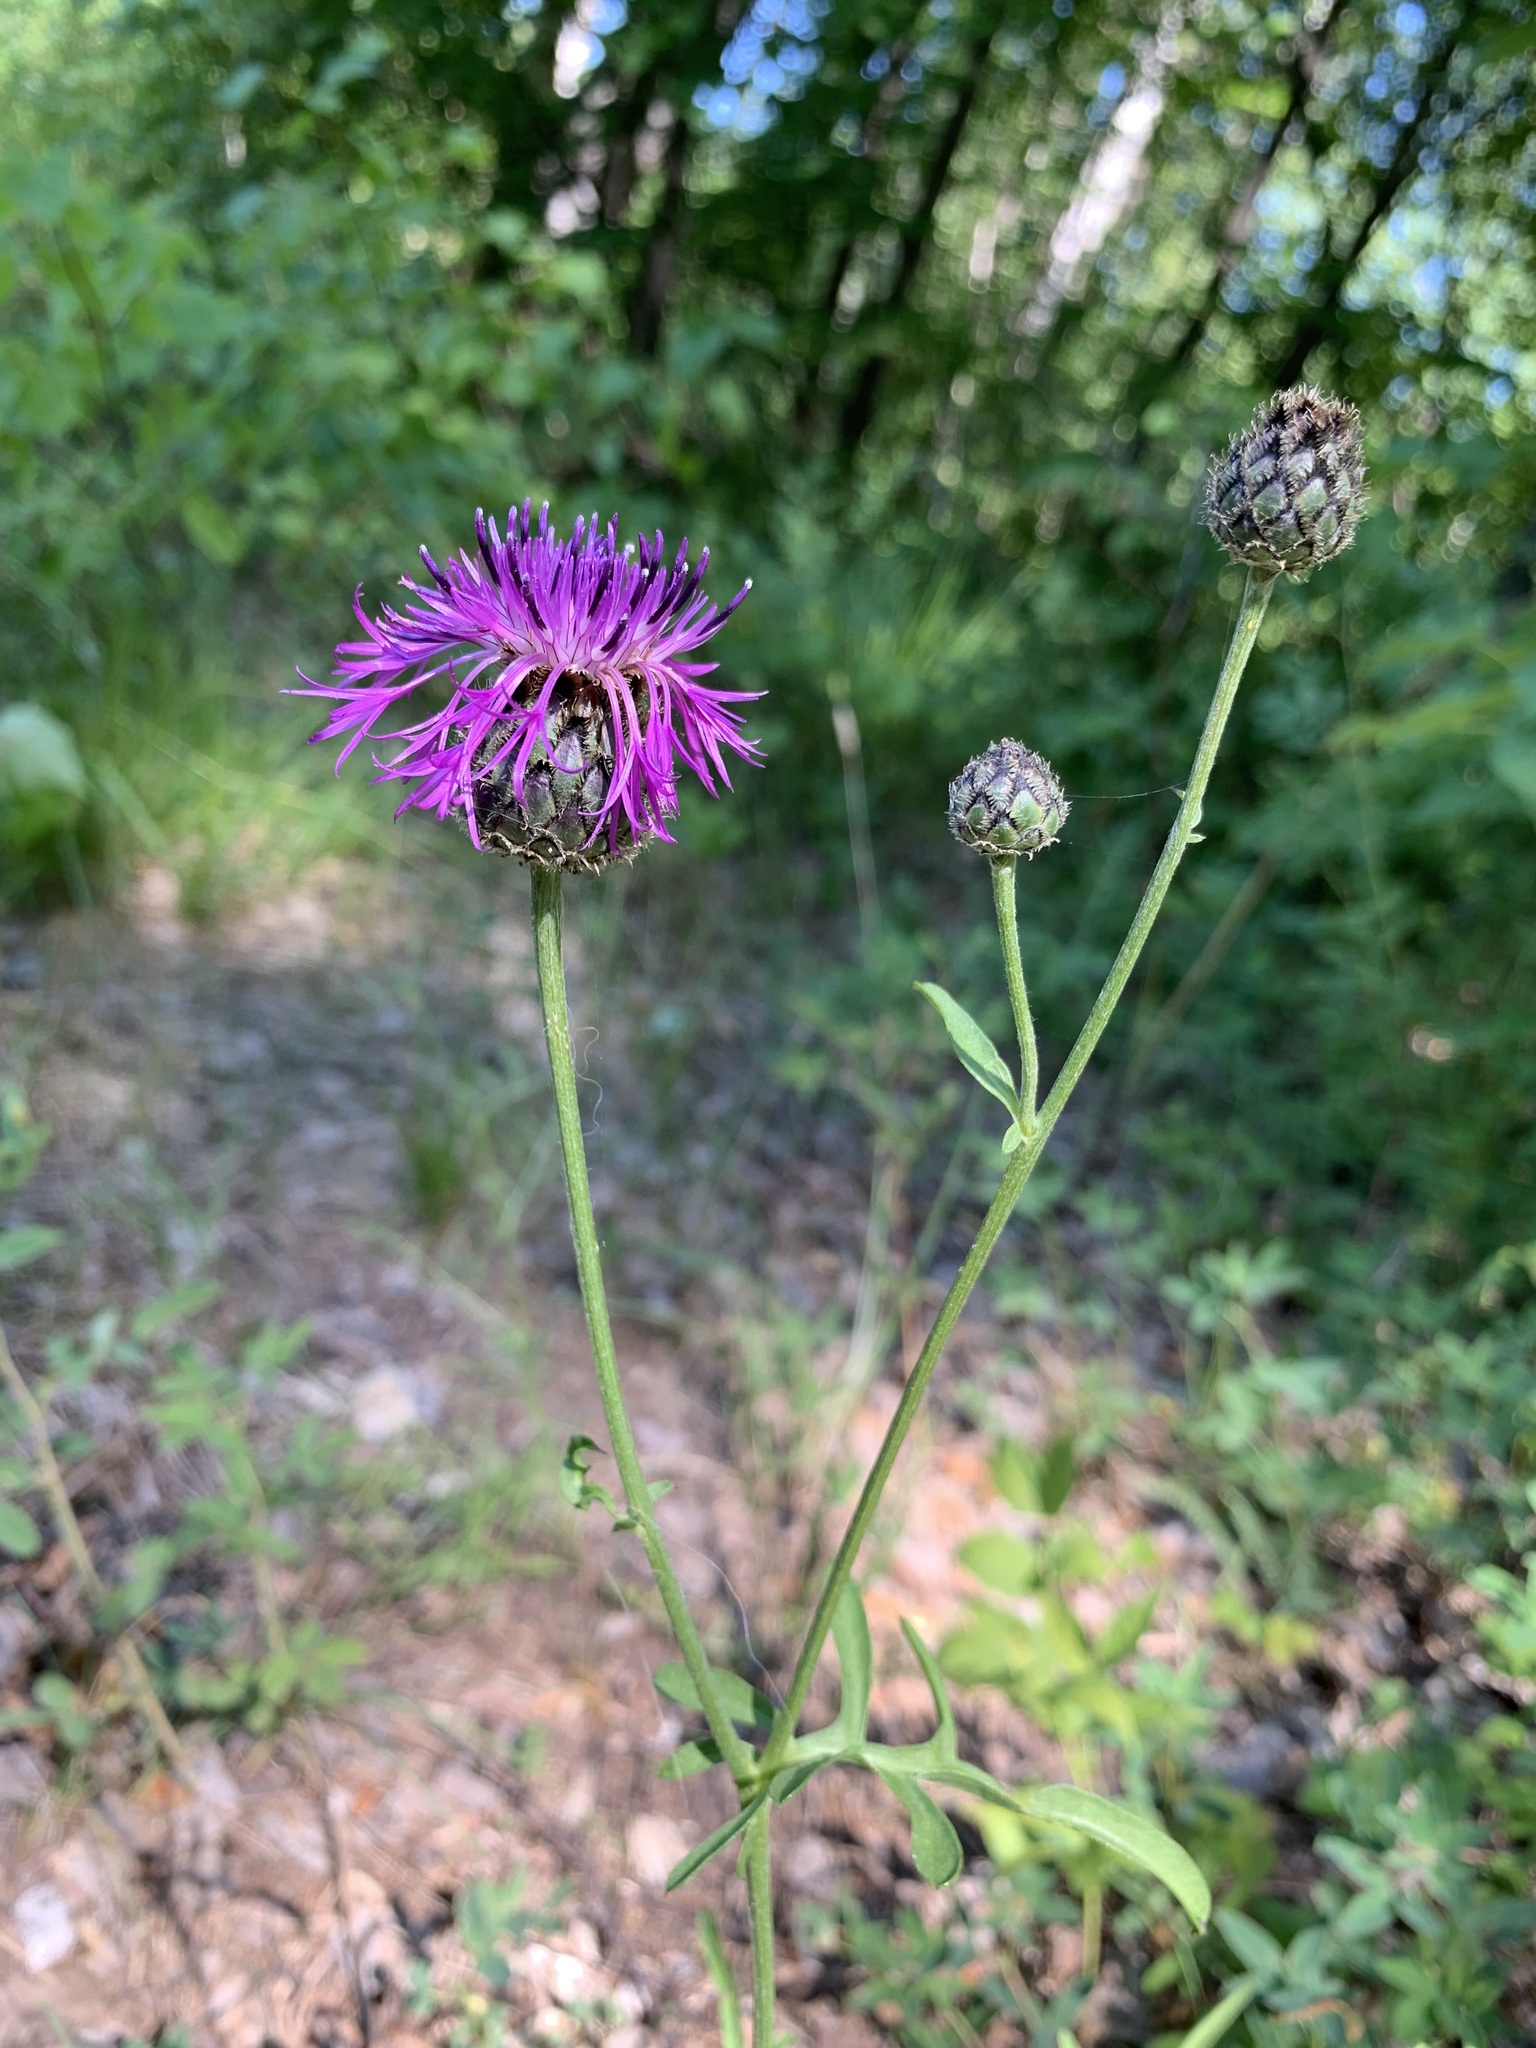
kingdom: Plantae
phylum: Tracheophyta
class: Magnoliopsida
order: Asterales
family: Asteraceae
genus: Centaurea
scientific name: Centaurea scabiosa
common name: Greater knapweed
